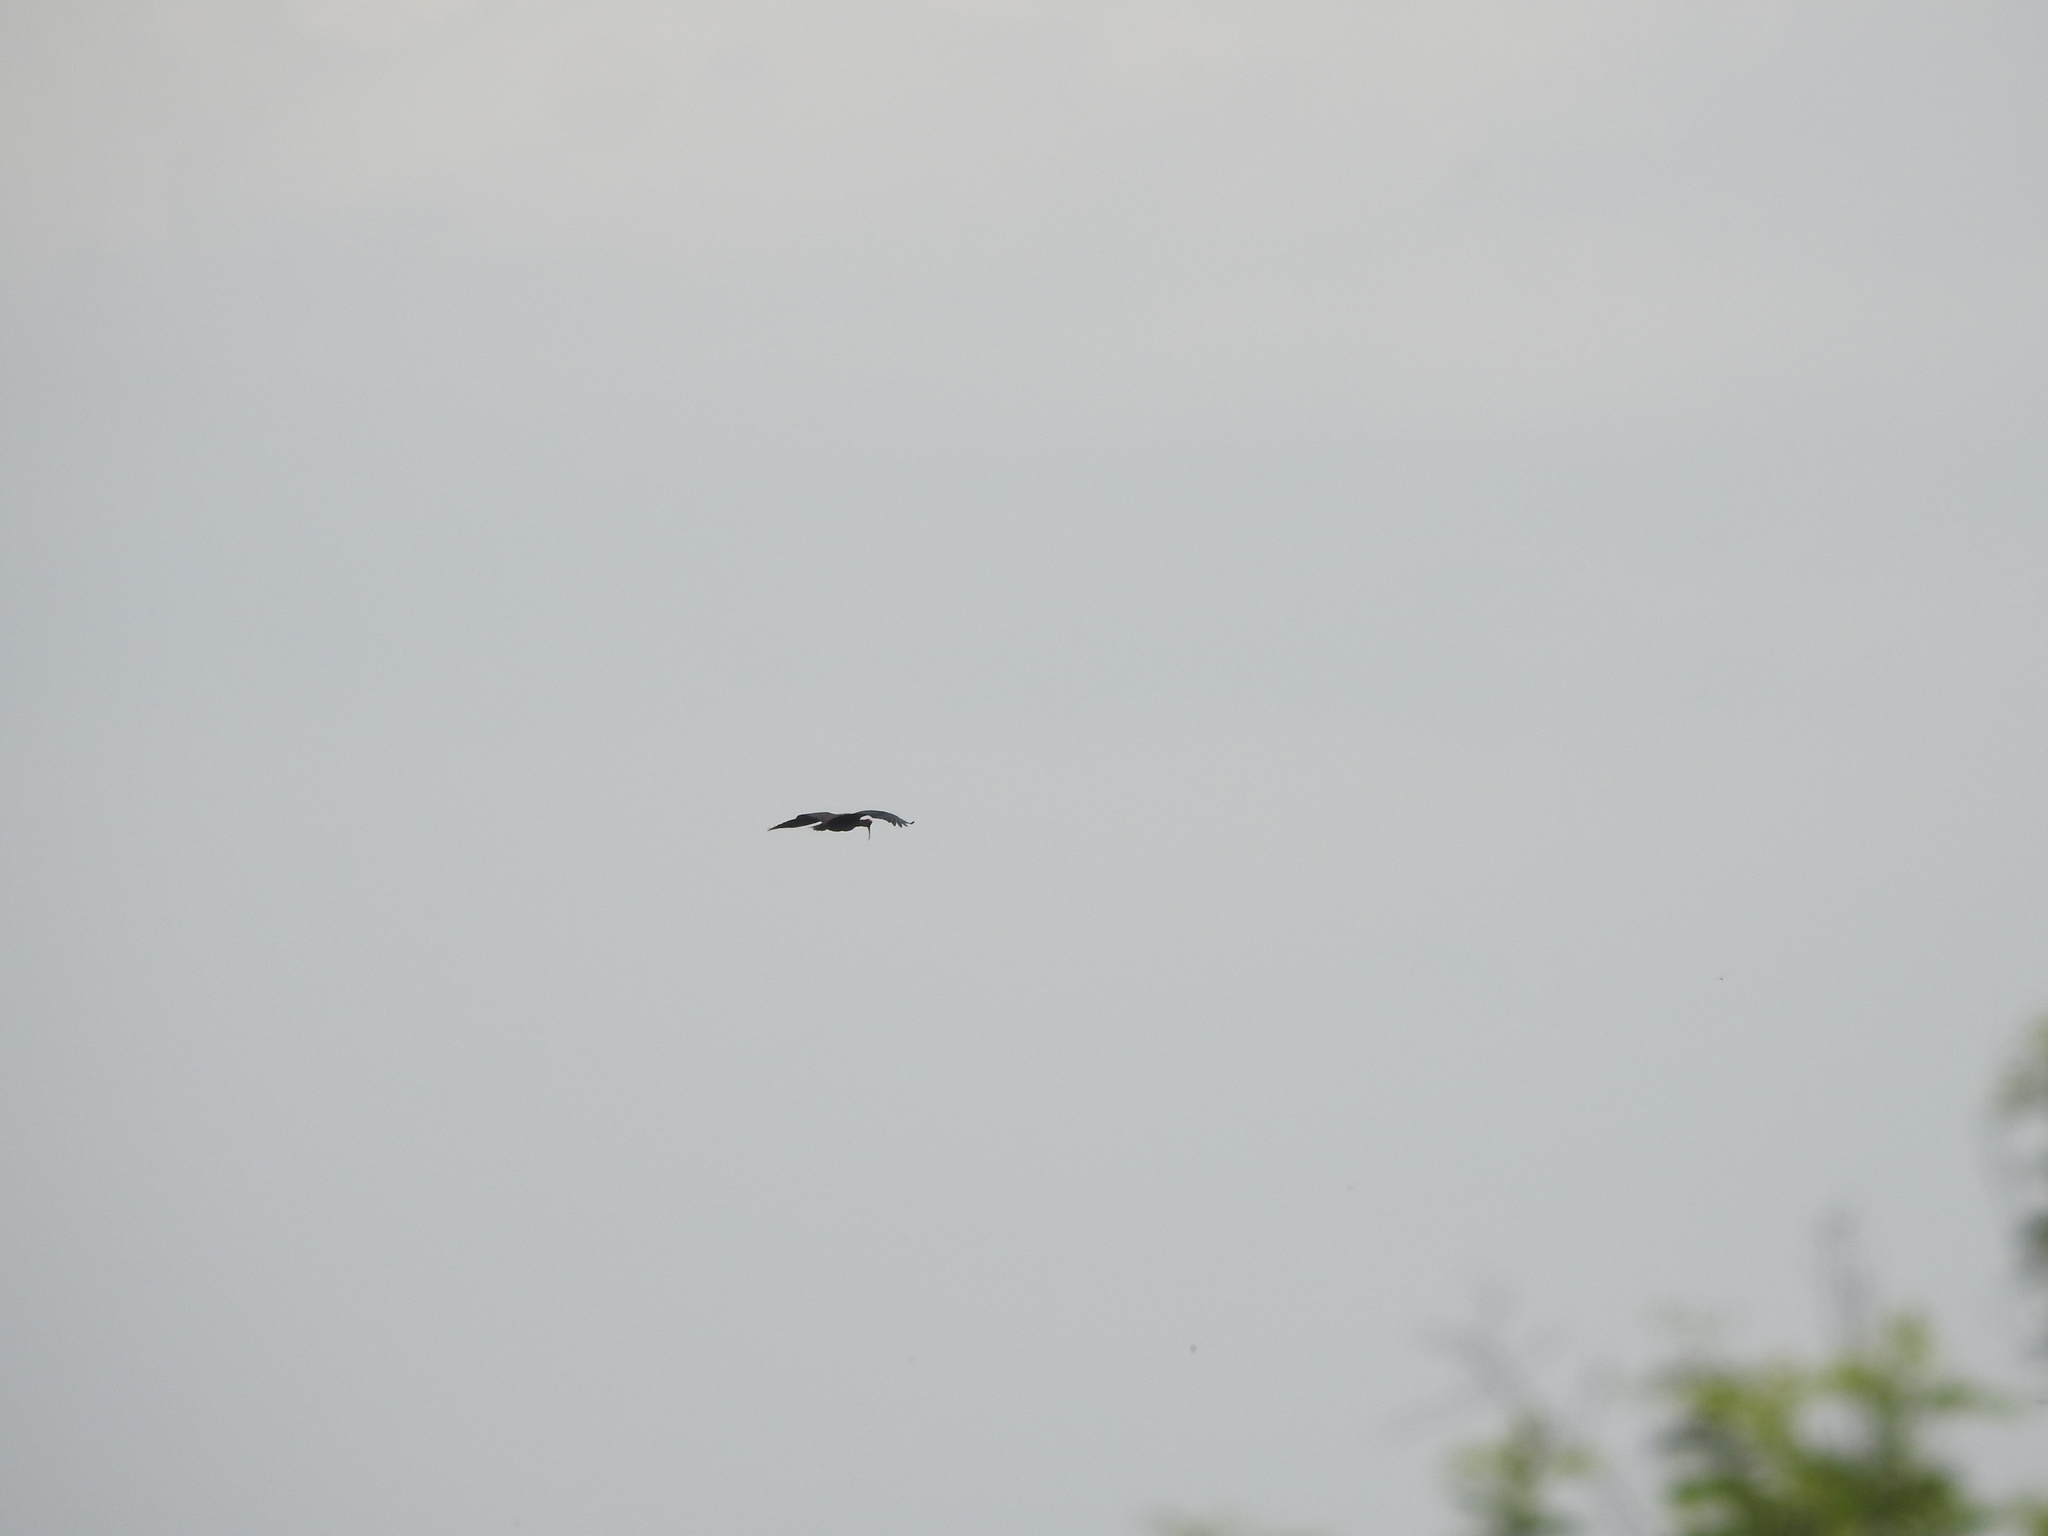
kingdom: Animalia
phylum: Chordata
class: Aves
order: Pelecaniformes
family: Threskiornithidae
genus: Pseudibis
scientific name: Pseudibis papillosa
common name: Red-naped ibis
